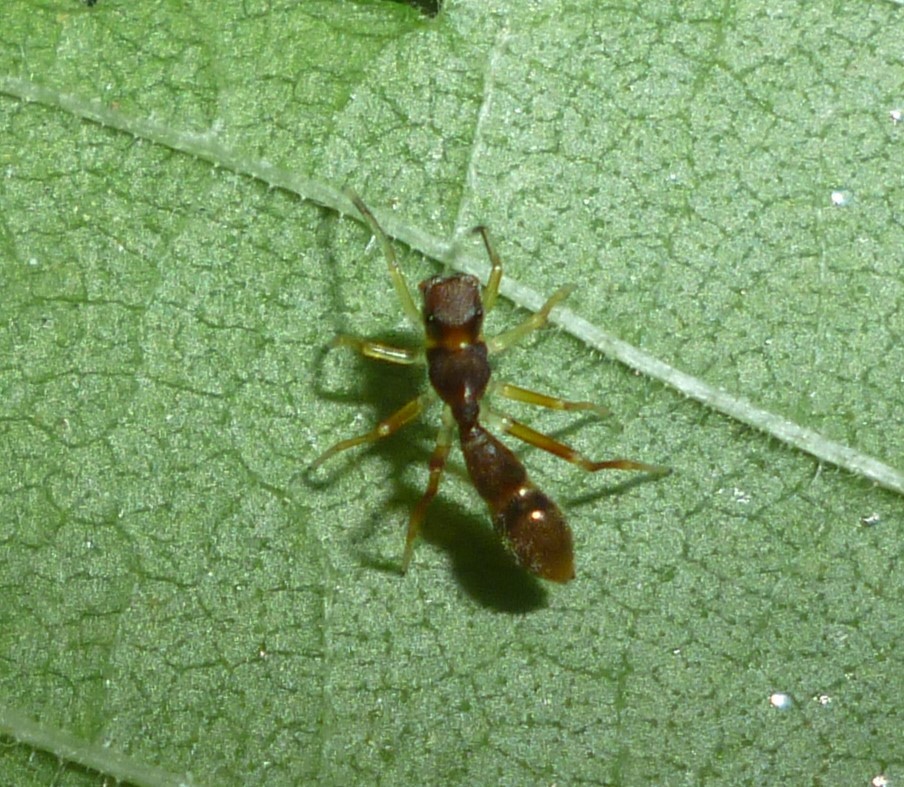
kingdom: Animalia
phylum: Arthropoda
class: Arachnida
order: Araneae
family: Salticidae
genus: Synemosyna
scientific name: Synemosyna formica
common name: Slender ant-mimic jumping spider
